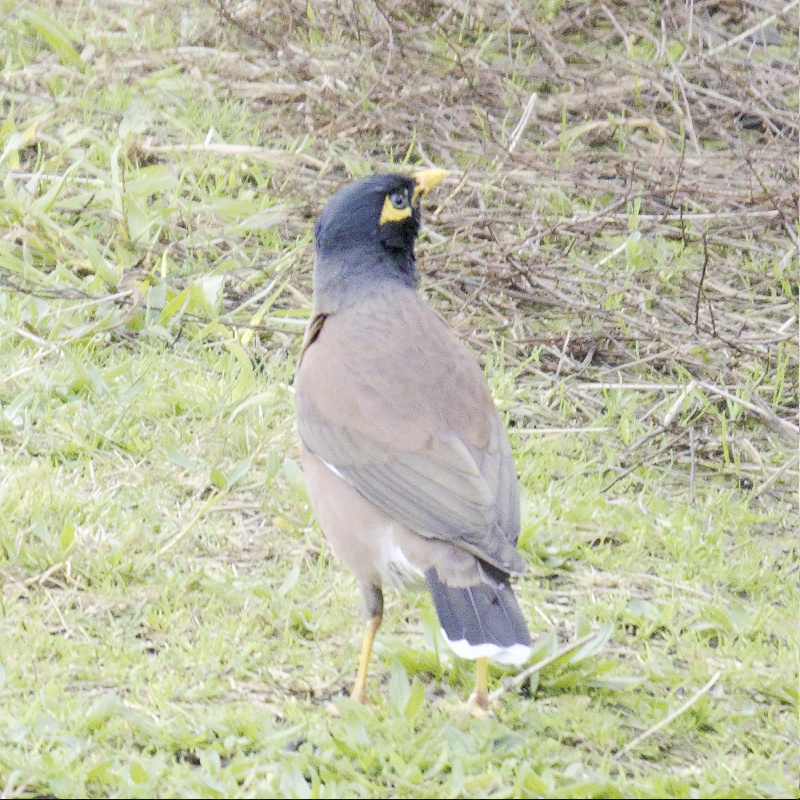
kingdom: Animalia
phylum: Chordata
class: Aves
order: Passeriformes
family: Sturnidae
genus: Acridotheres
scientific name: Acridotheres tristis
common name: Common myna
